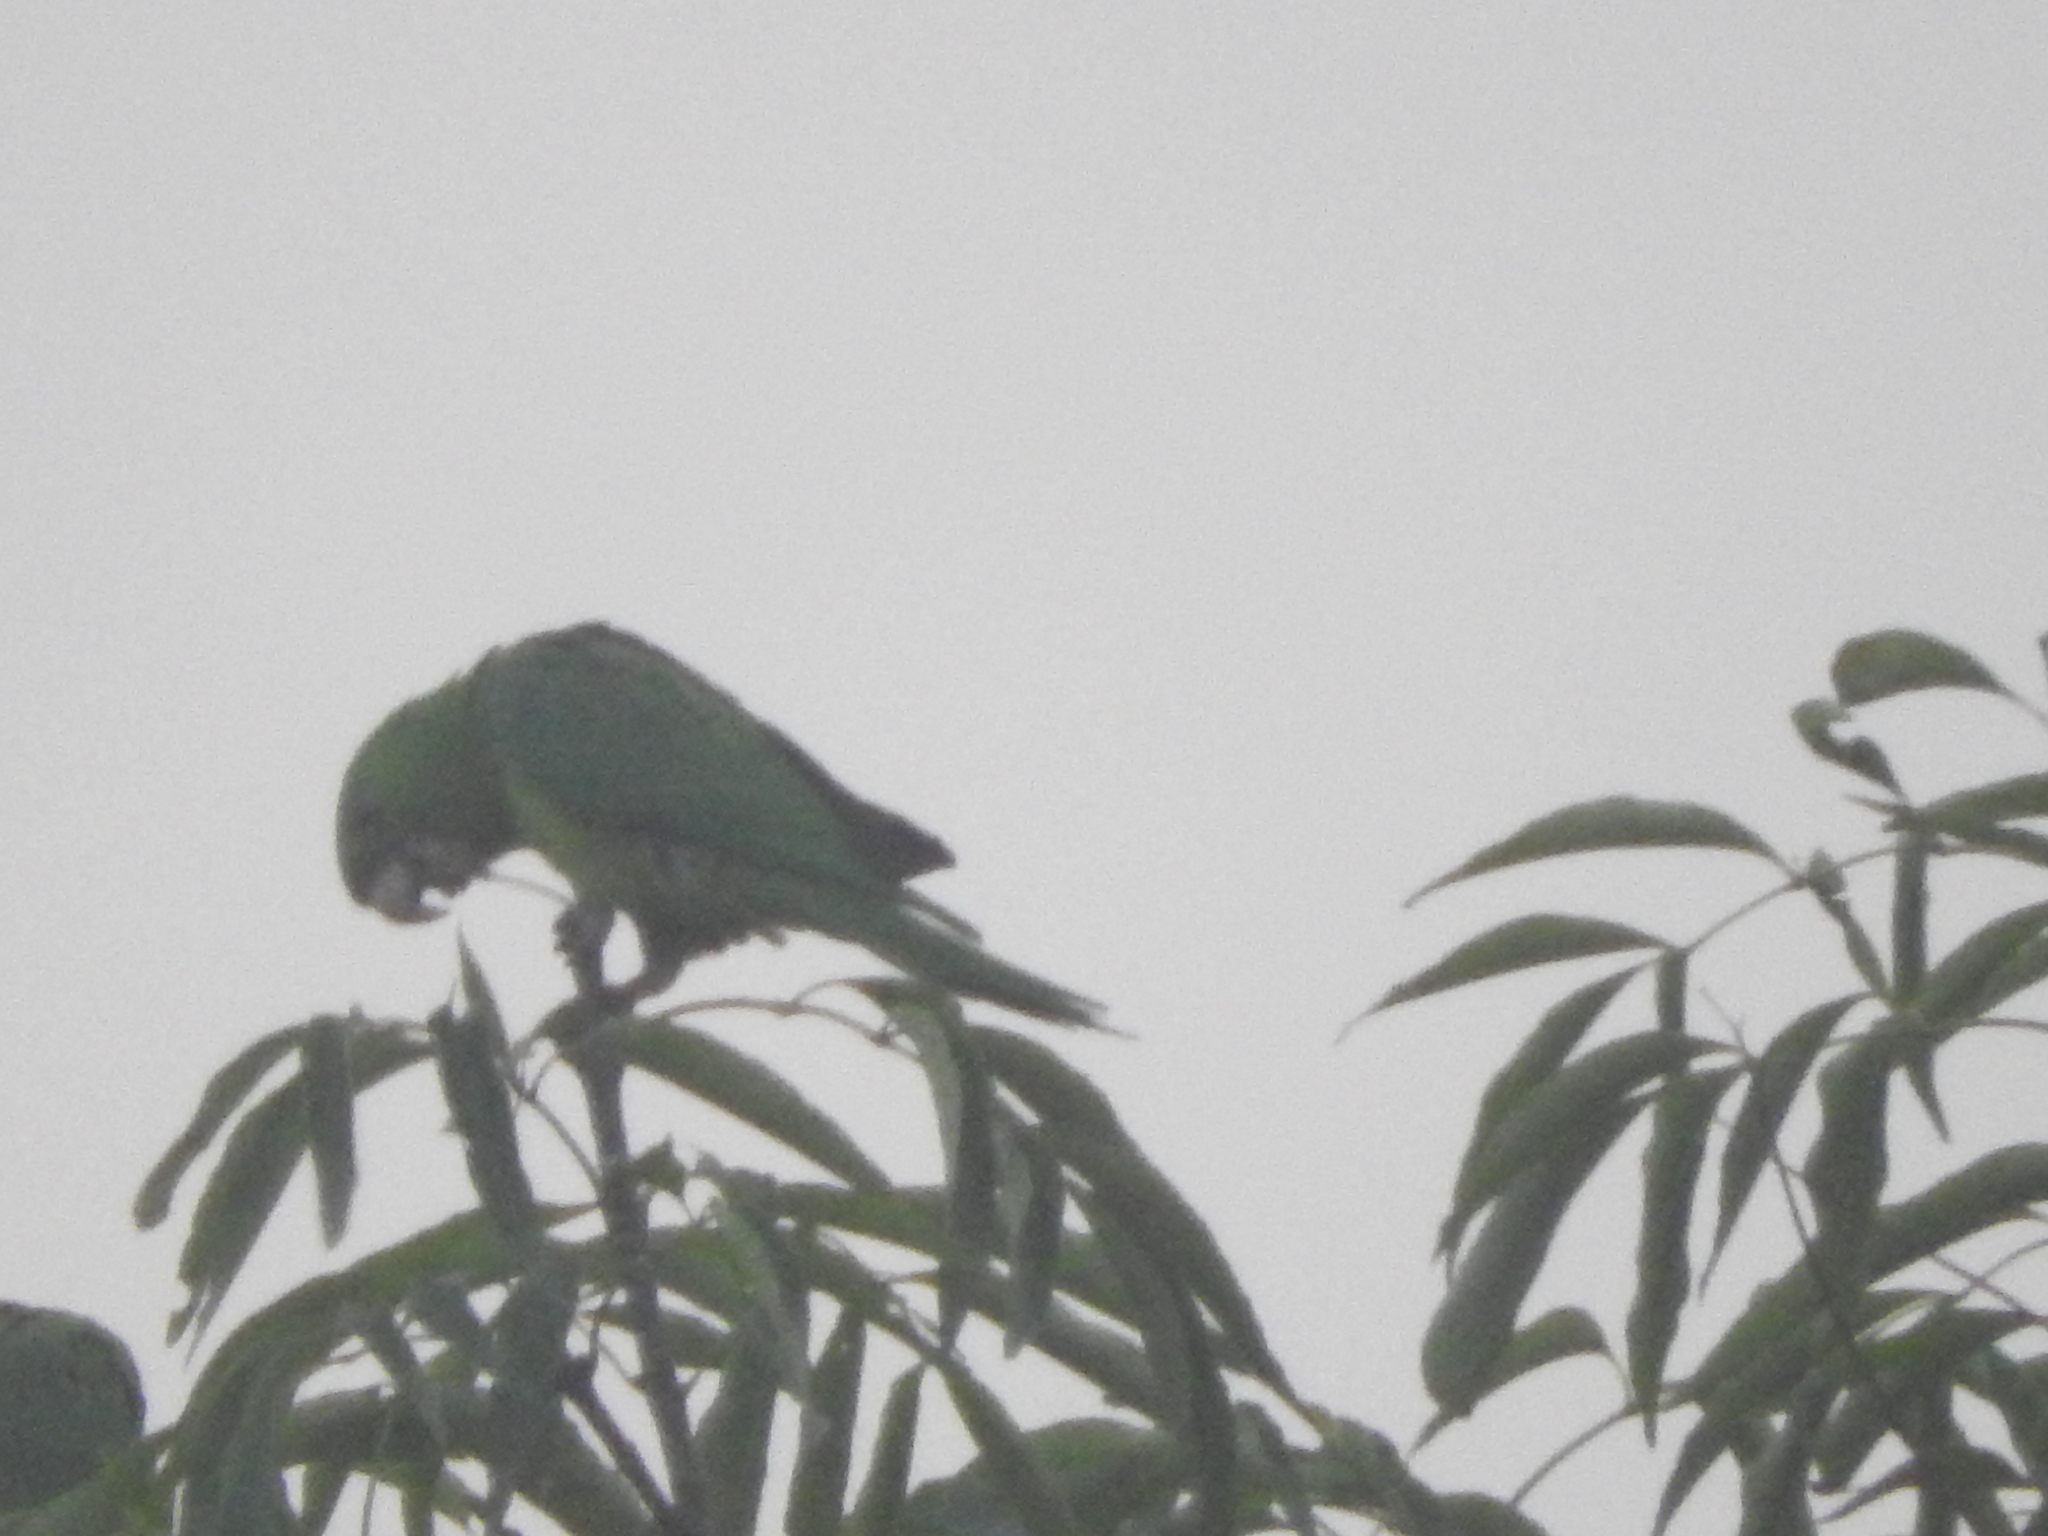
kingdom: Animalia
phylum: Chordata
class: Aves
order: Psittaciformes
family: Psittacidae
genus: Aratinga
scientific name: Aratinga holochlora
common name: Green parakeet
